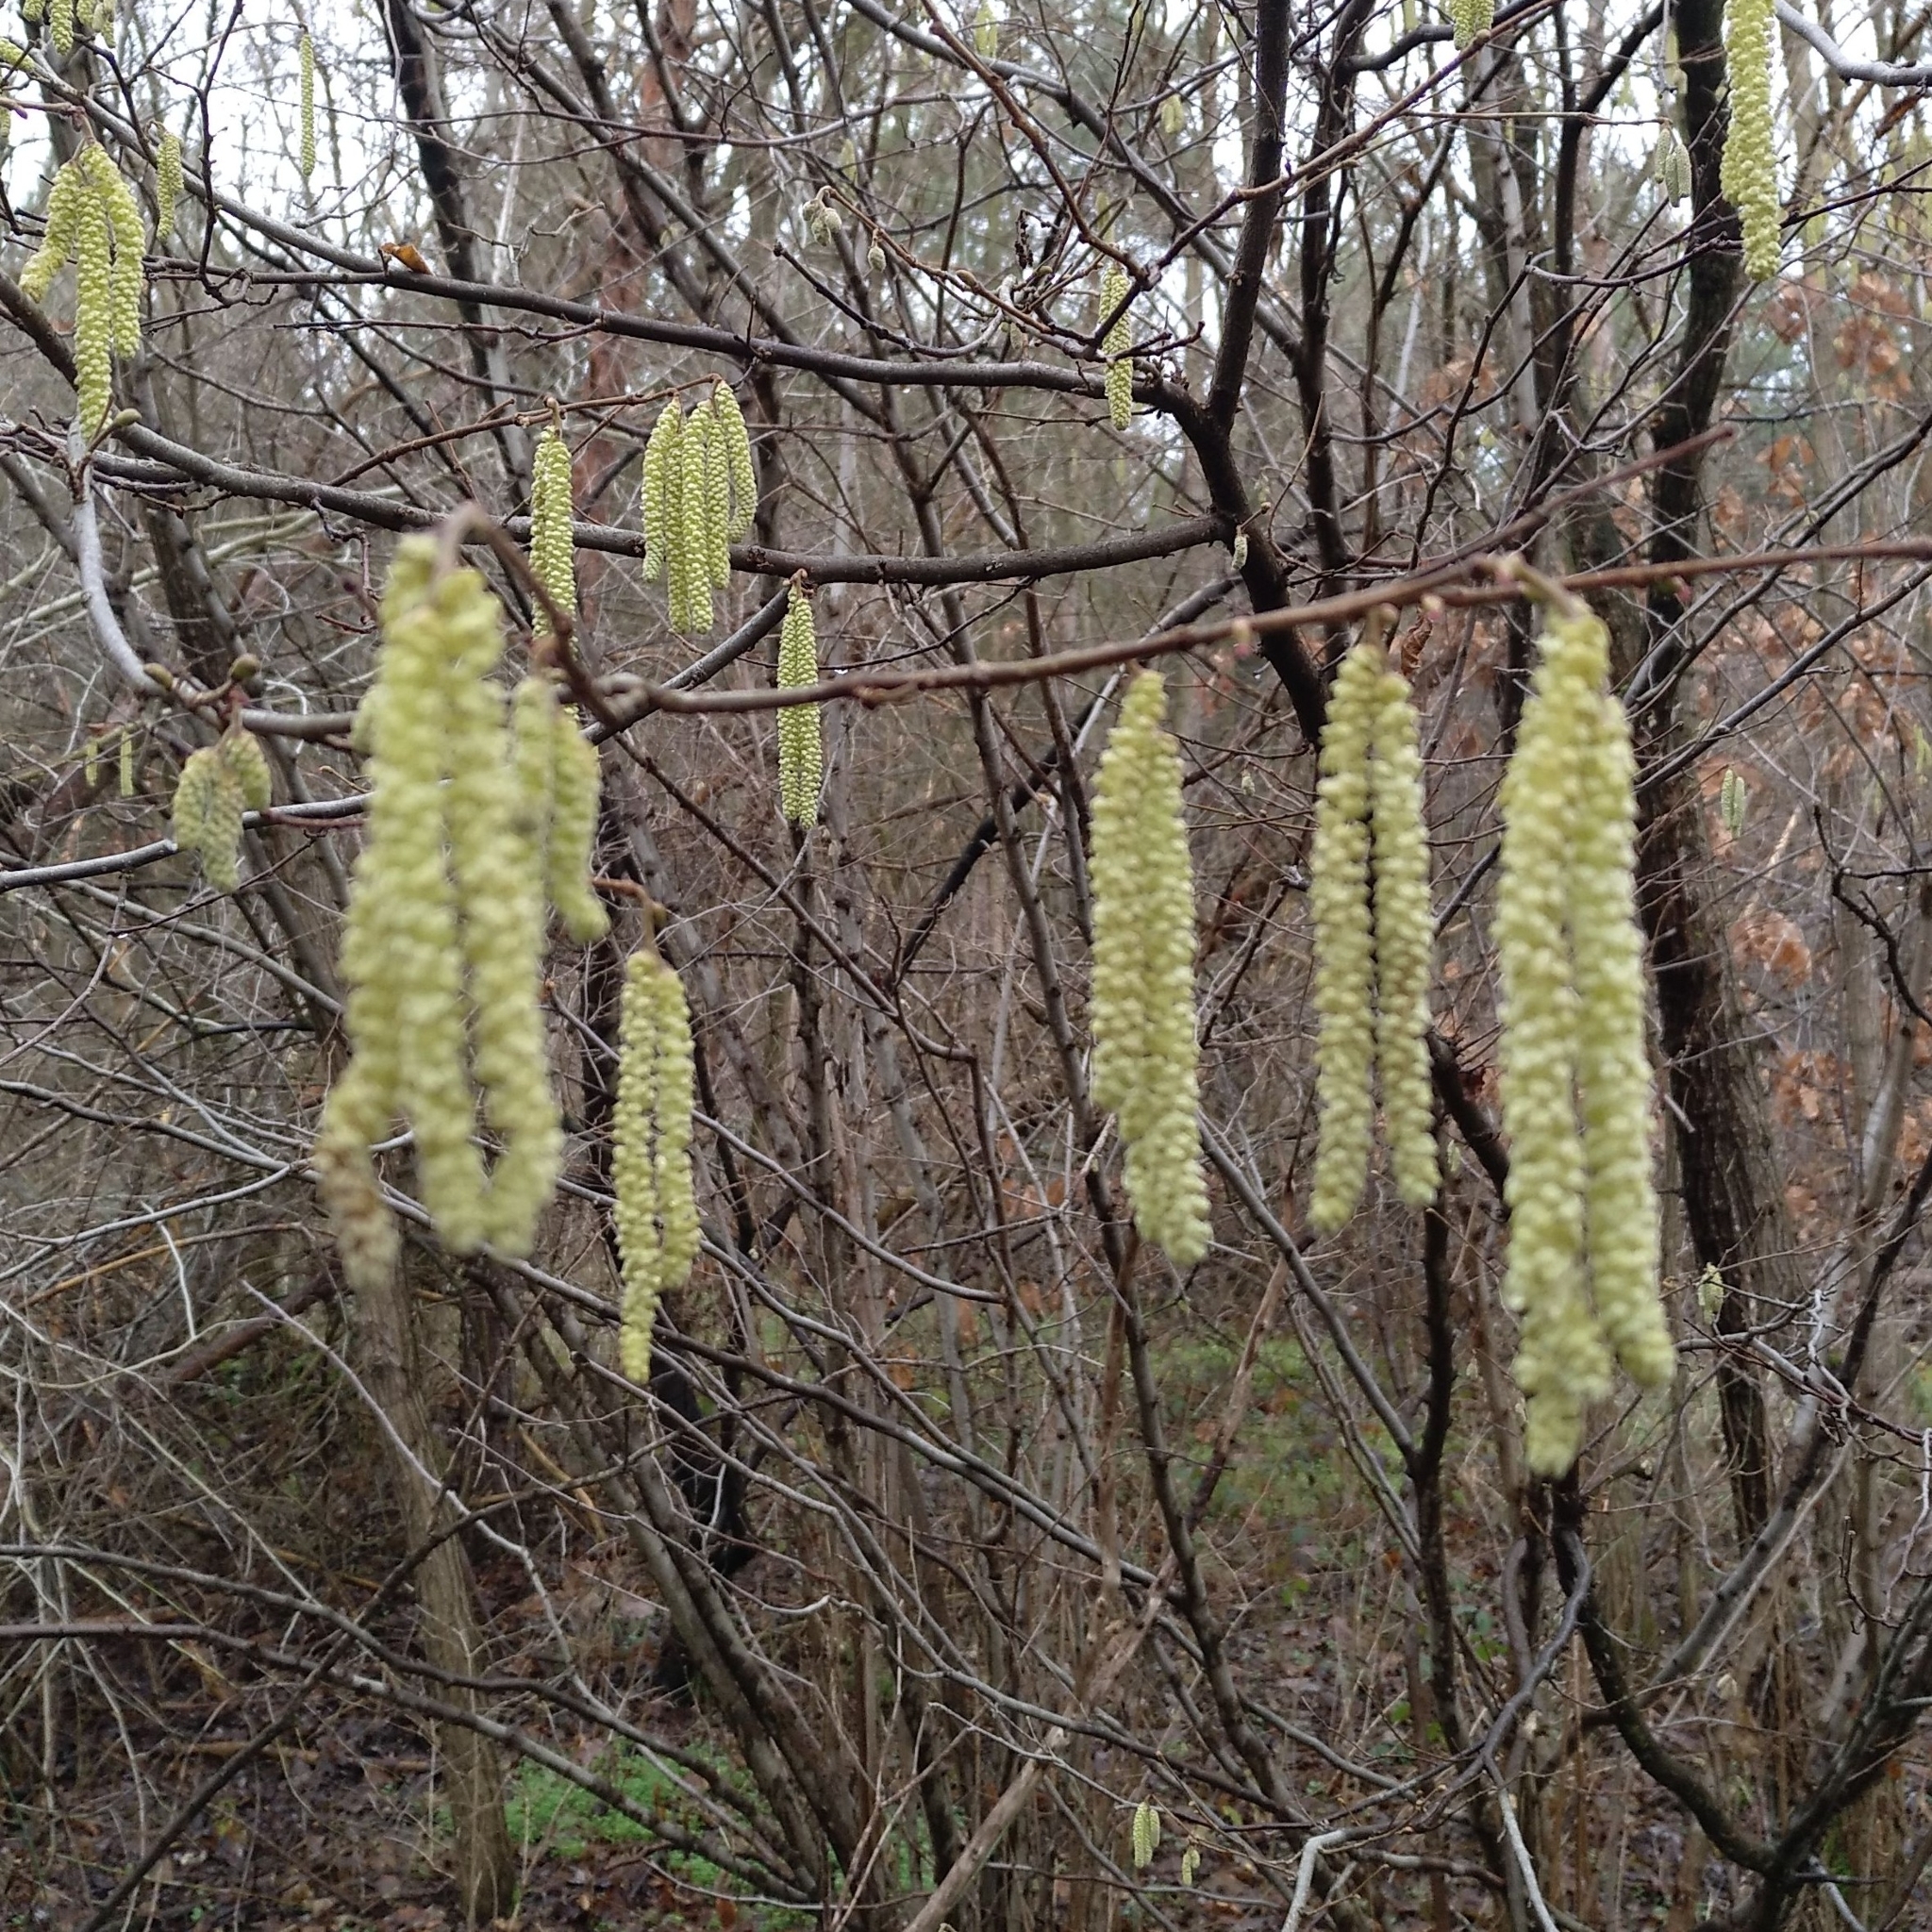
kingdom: Plantae
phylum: Tracheophyta
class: Magnoliopsida
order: Fagales
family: Betulaceae
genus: Corylus
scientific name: Corylus avellana
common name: European hazel
